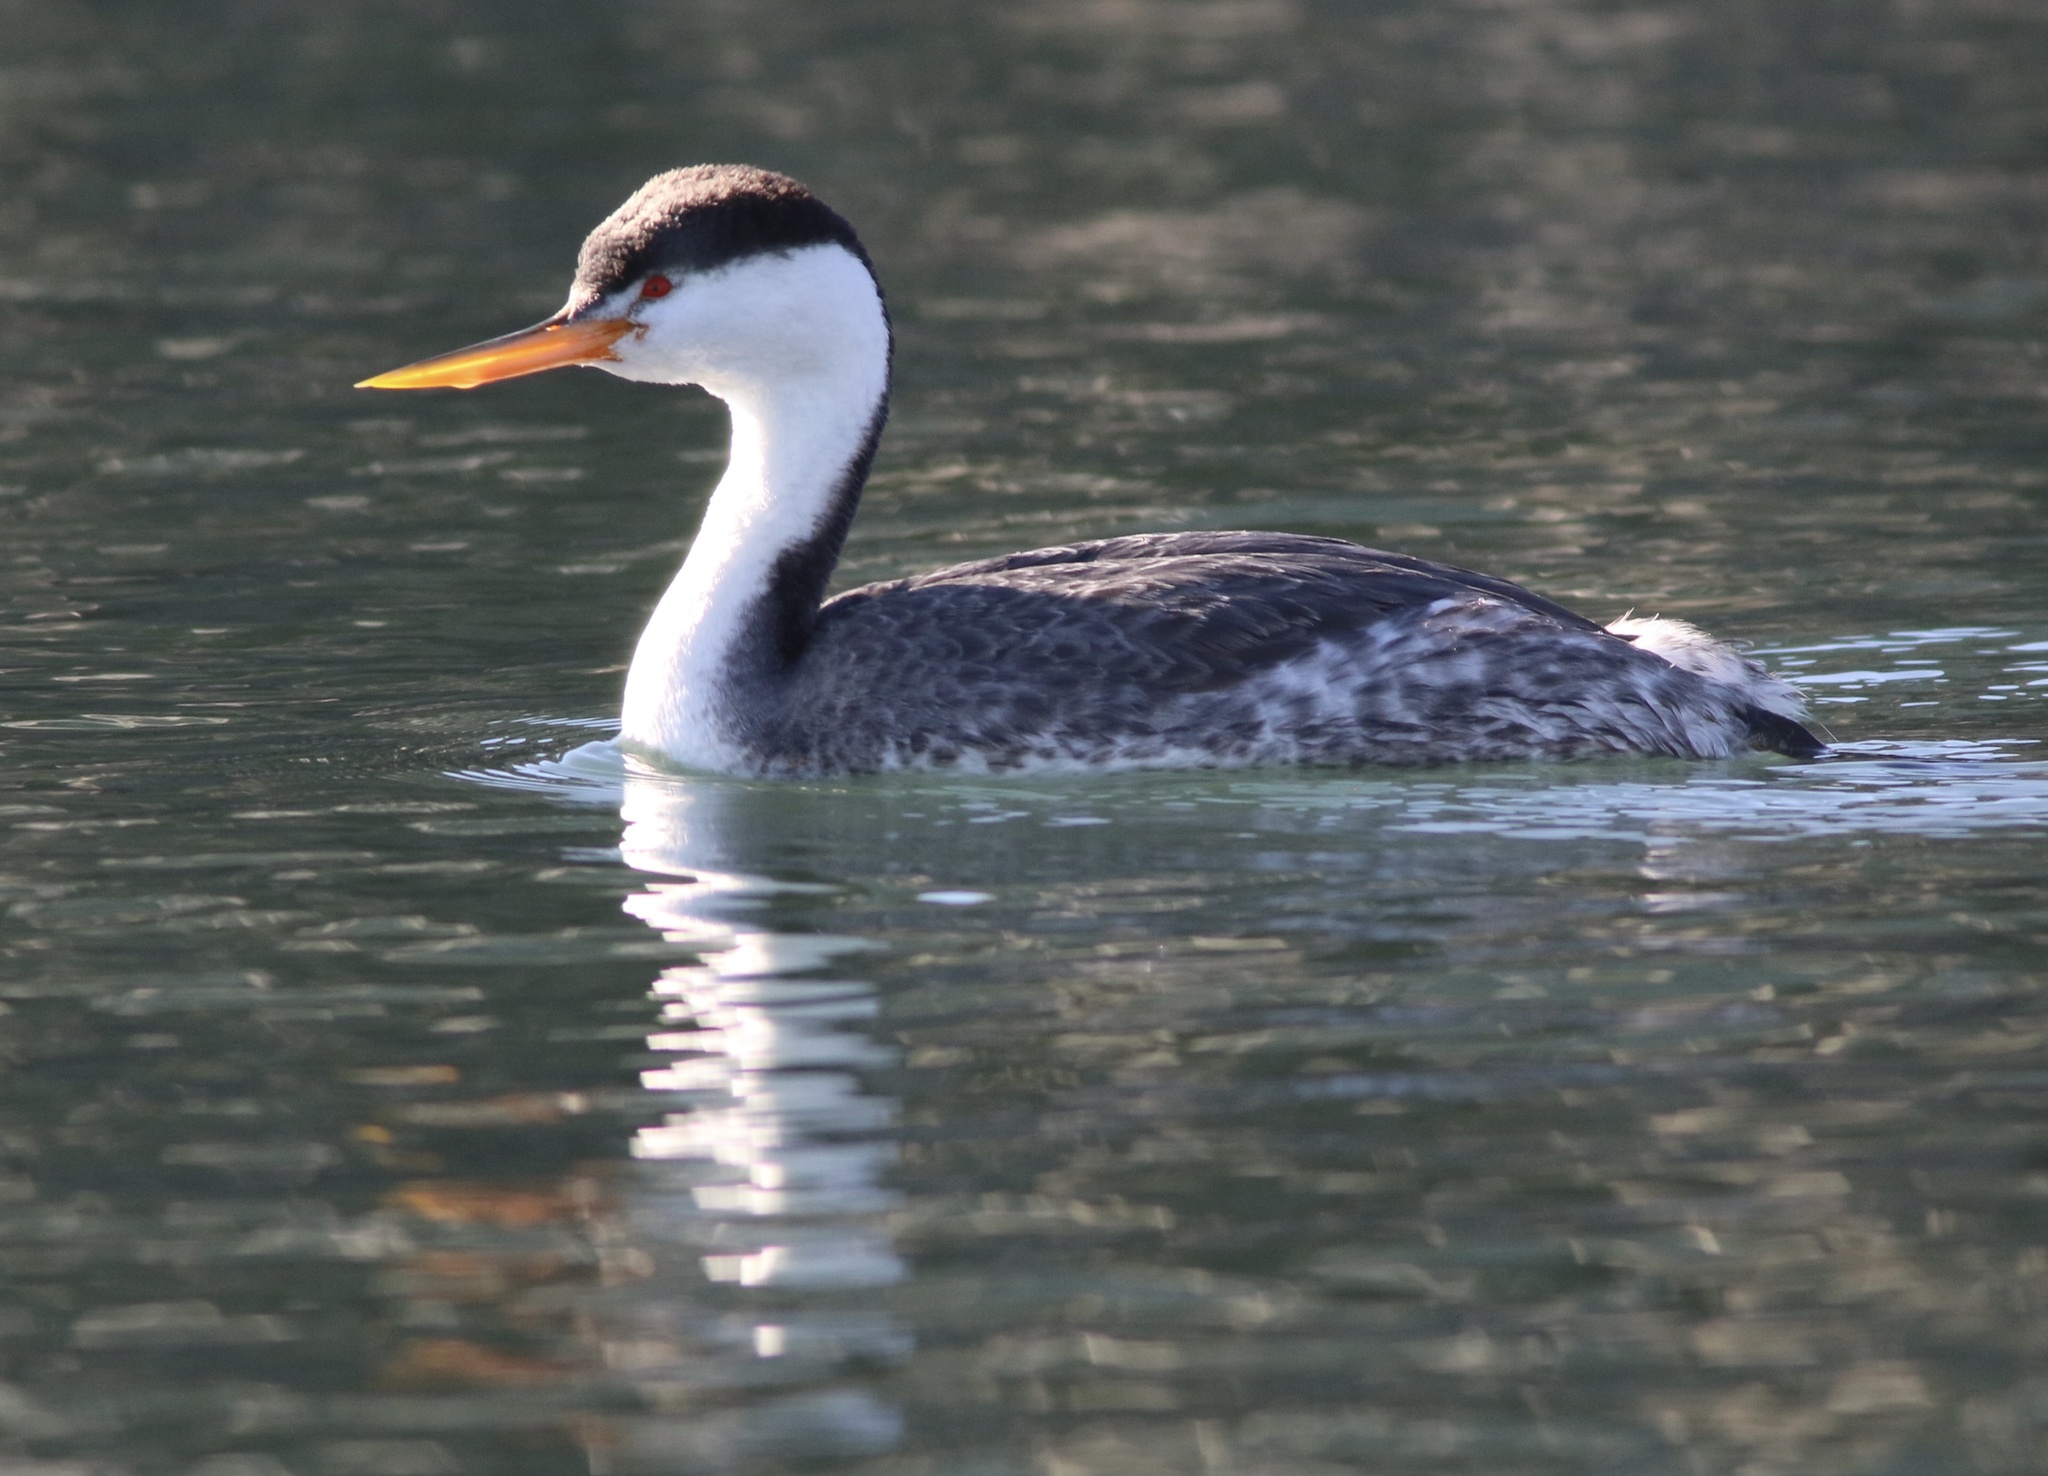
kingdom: Animalia
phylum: Chordata
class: Aves
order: Podicipediformes
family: Podicipedidae
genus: Aechmophorus
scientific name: Aechmophorus clarkii
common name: Clark's grebe
